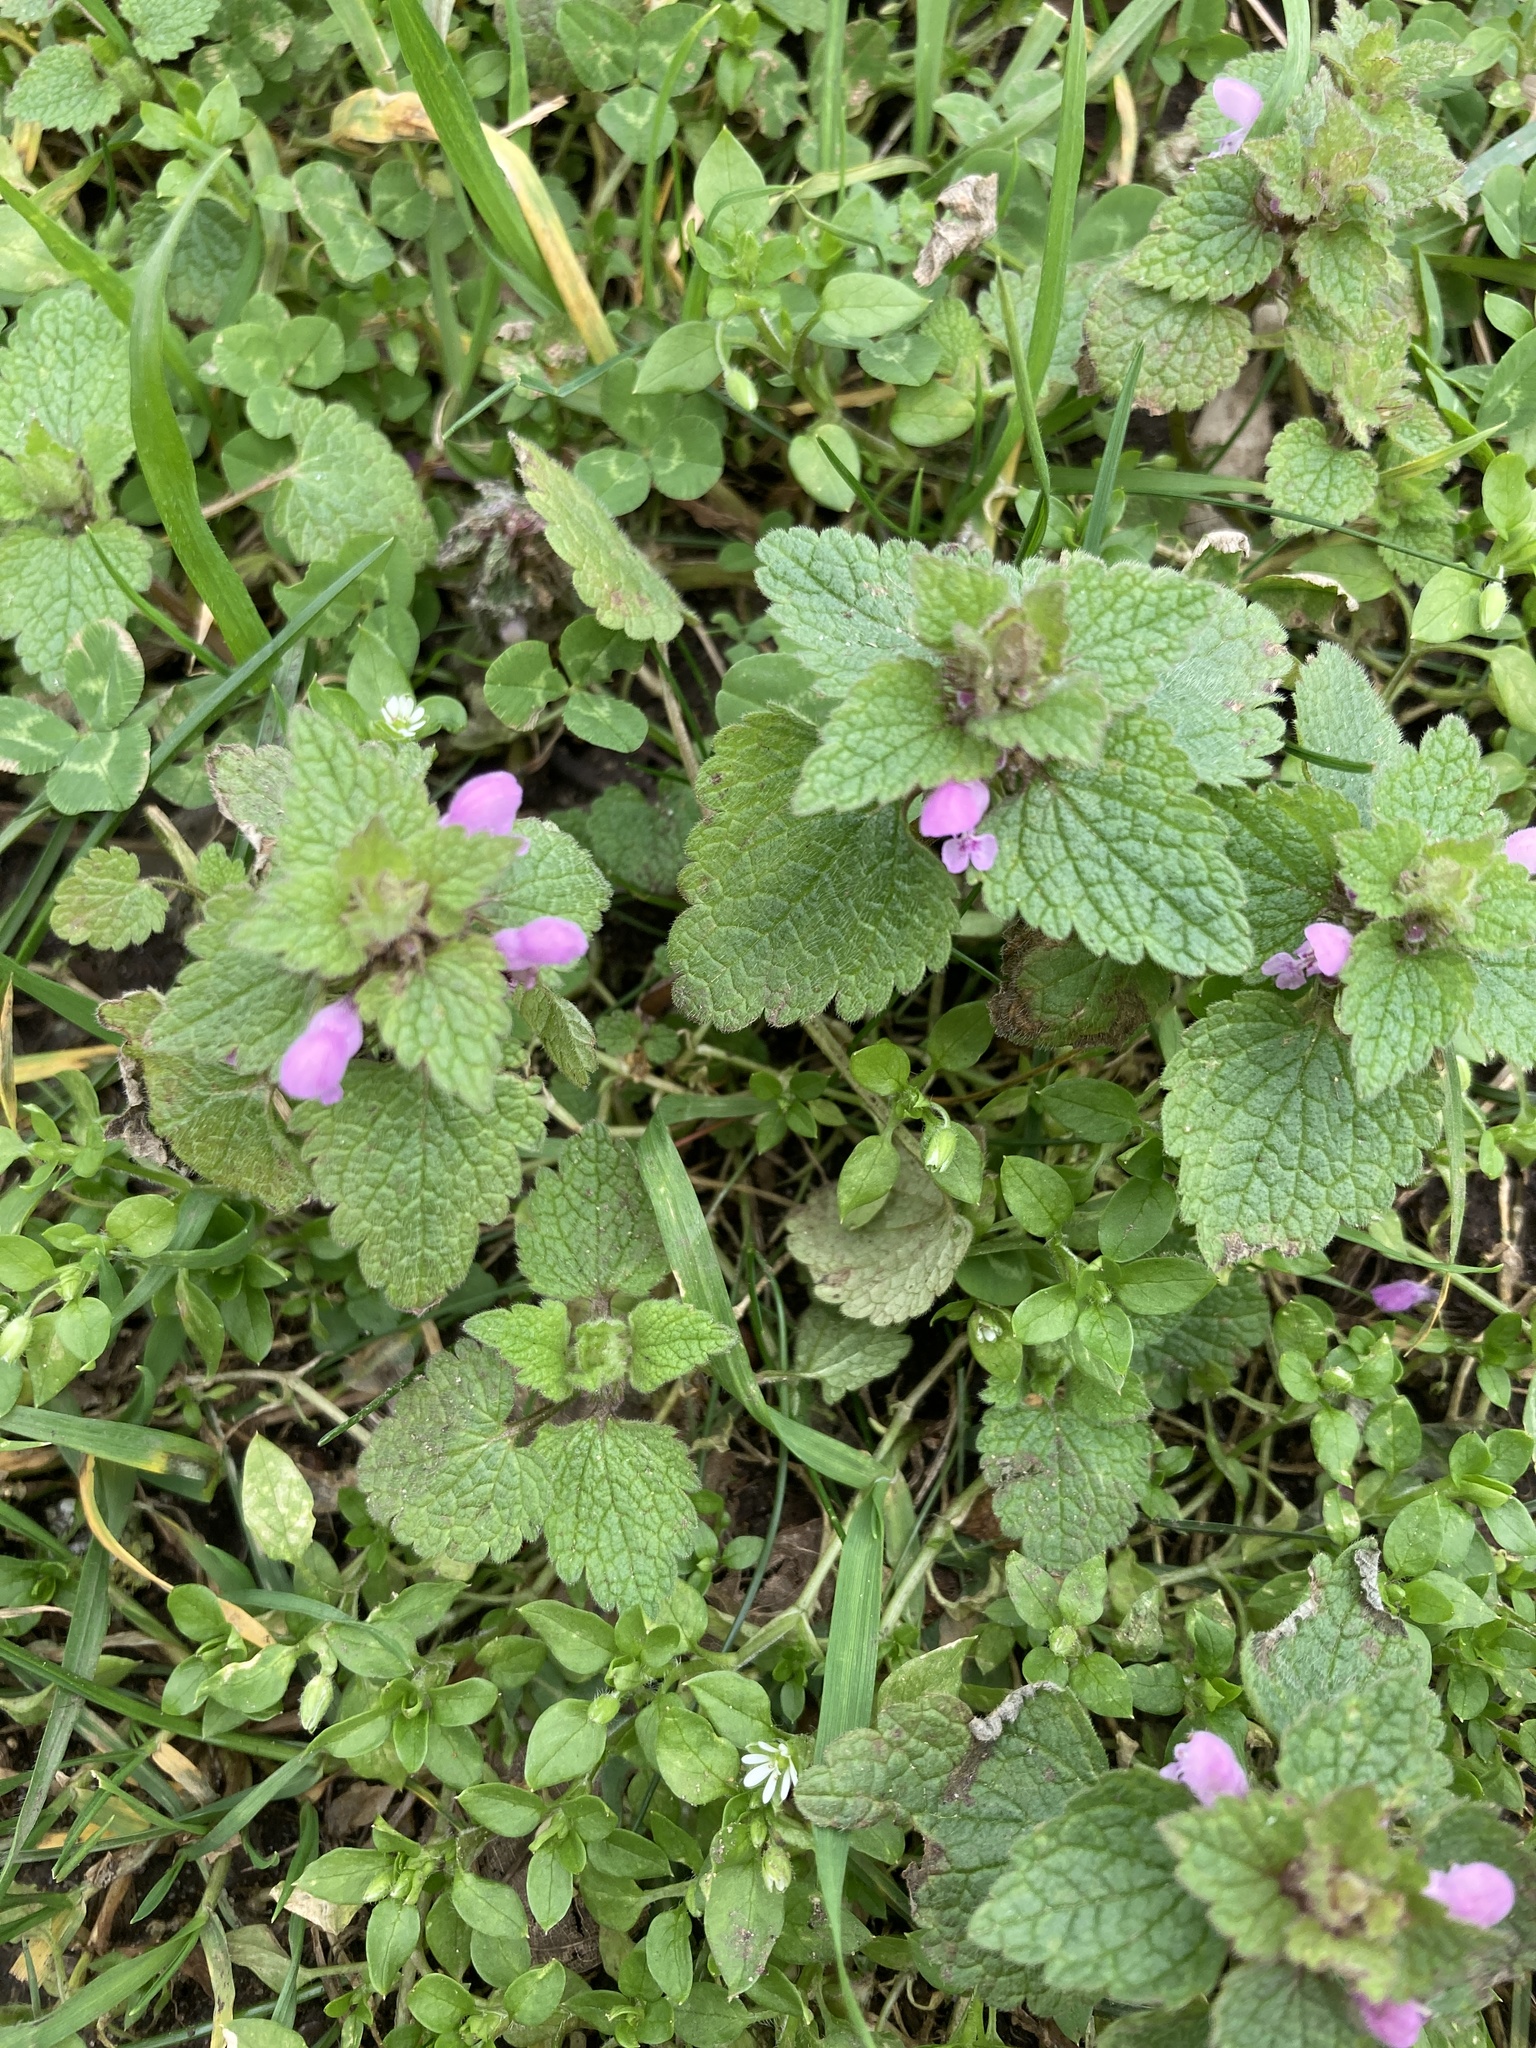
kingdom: Plantae
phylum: Tracheophyta
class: Magnoliopsida
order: Lamiales
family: Lamiaceae
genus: Lamium
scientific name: Lamium purpureum
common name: Red dead-nettle
